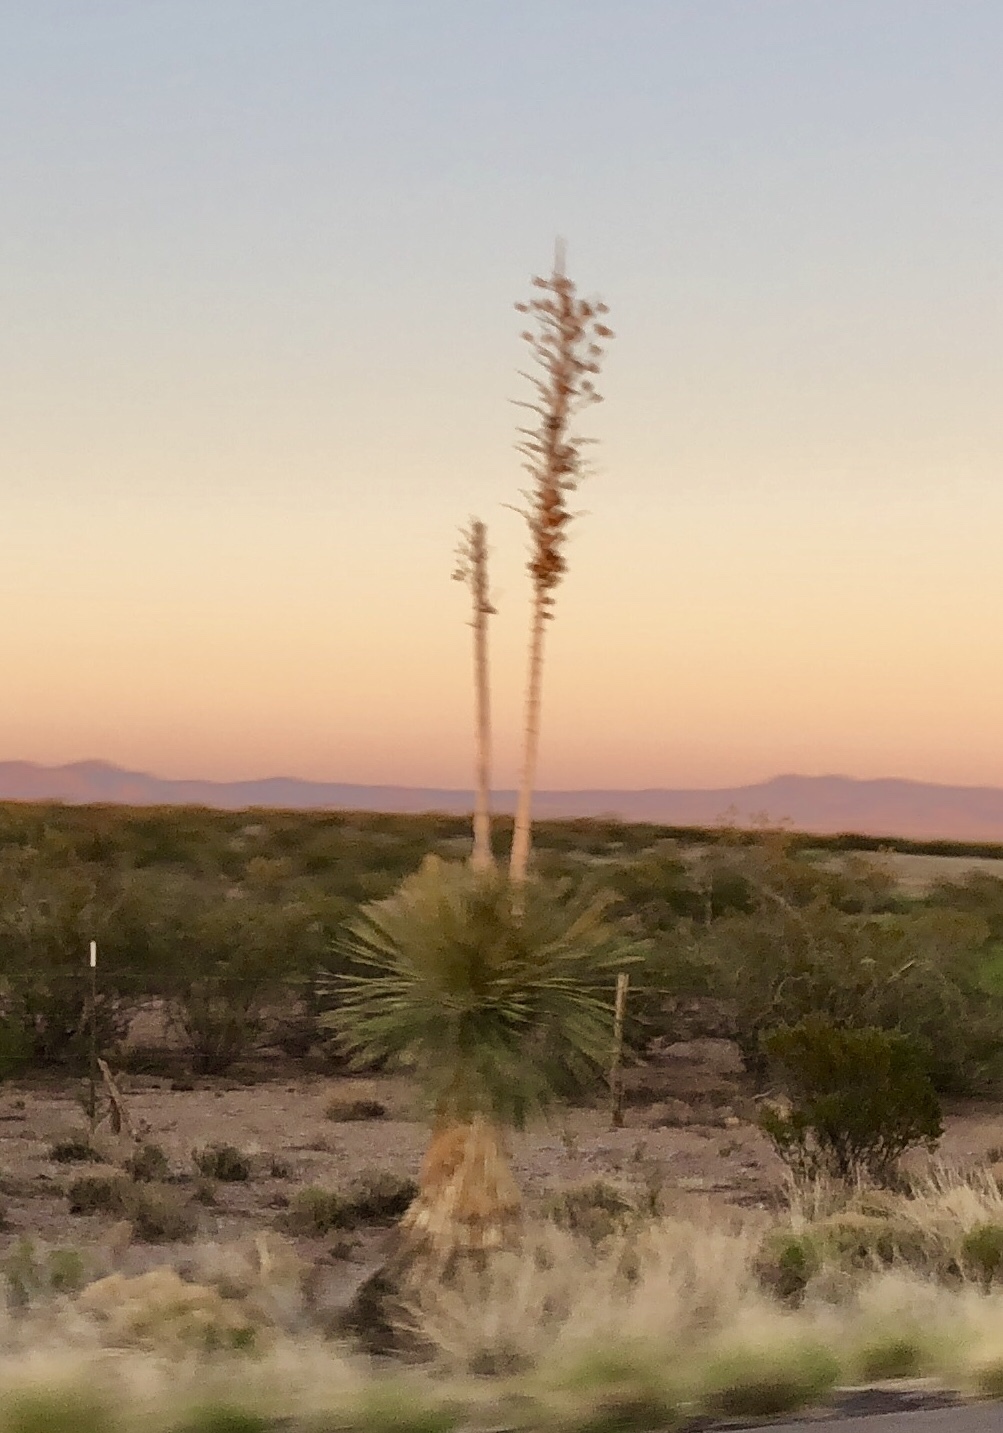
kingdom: Plantae
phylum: Tracheophyta
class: Liliopsida
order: Asparagales
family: Asparagaceae
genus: Yucca
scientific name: Yucca elata
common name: Palmella
